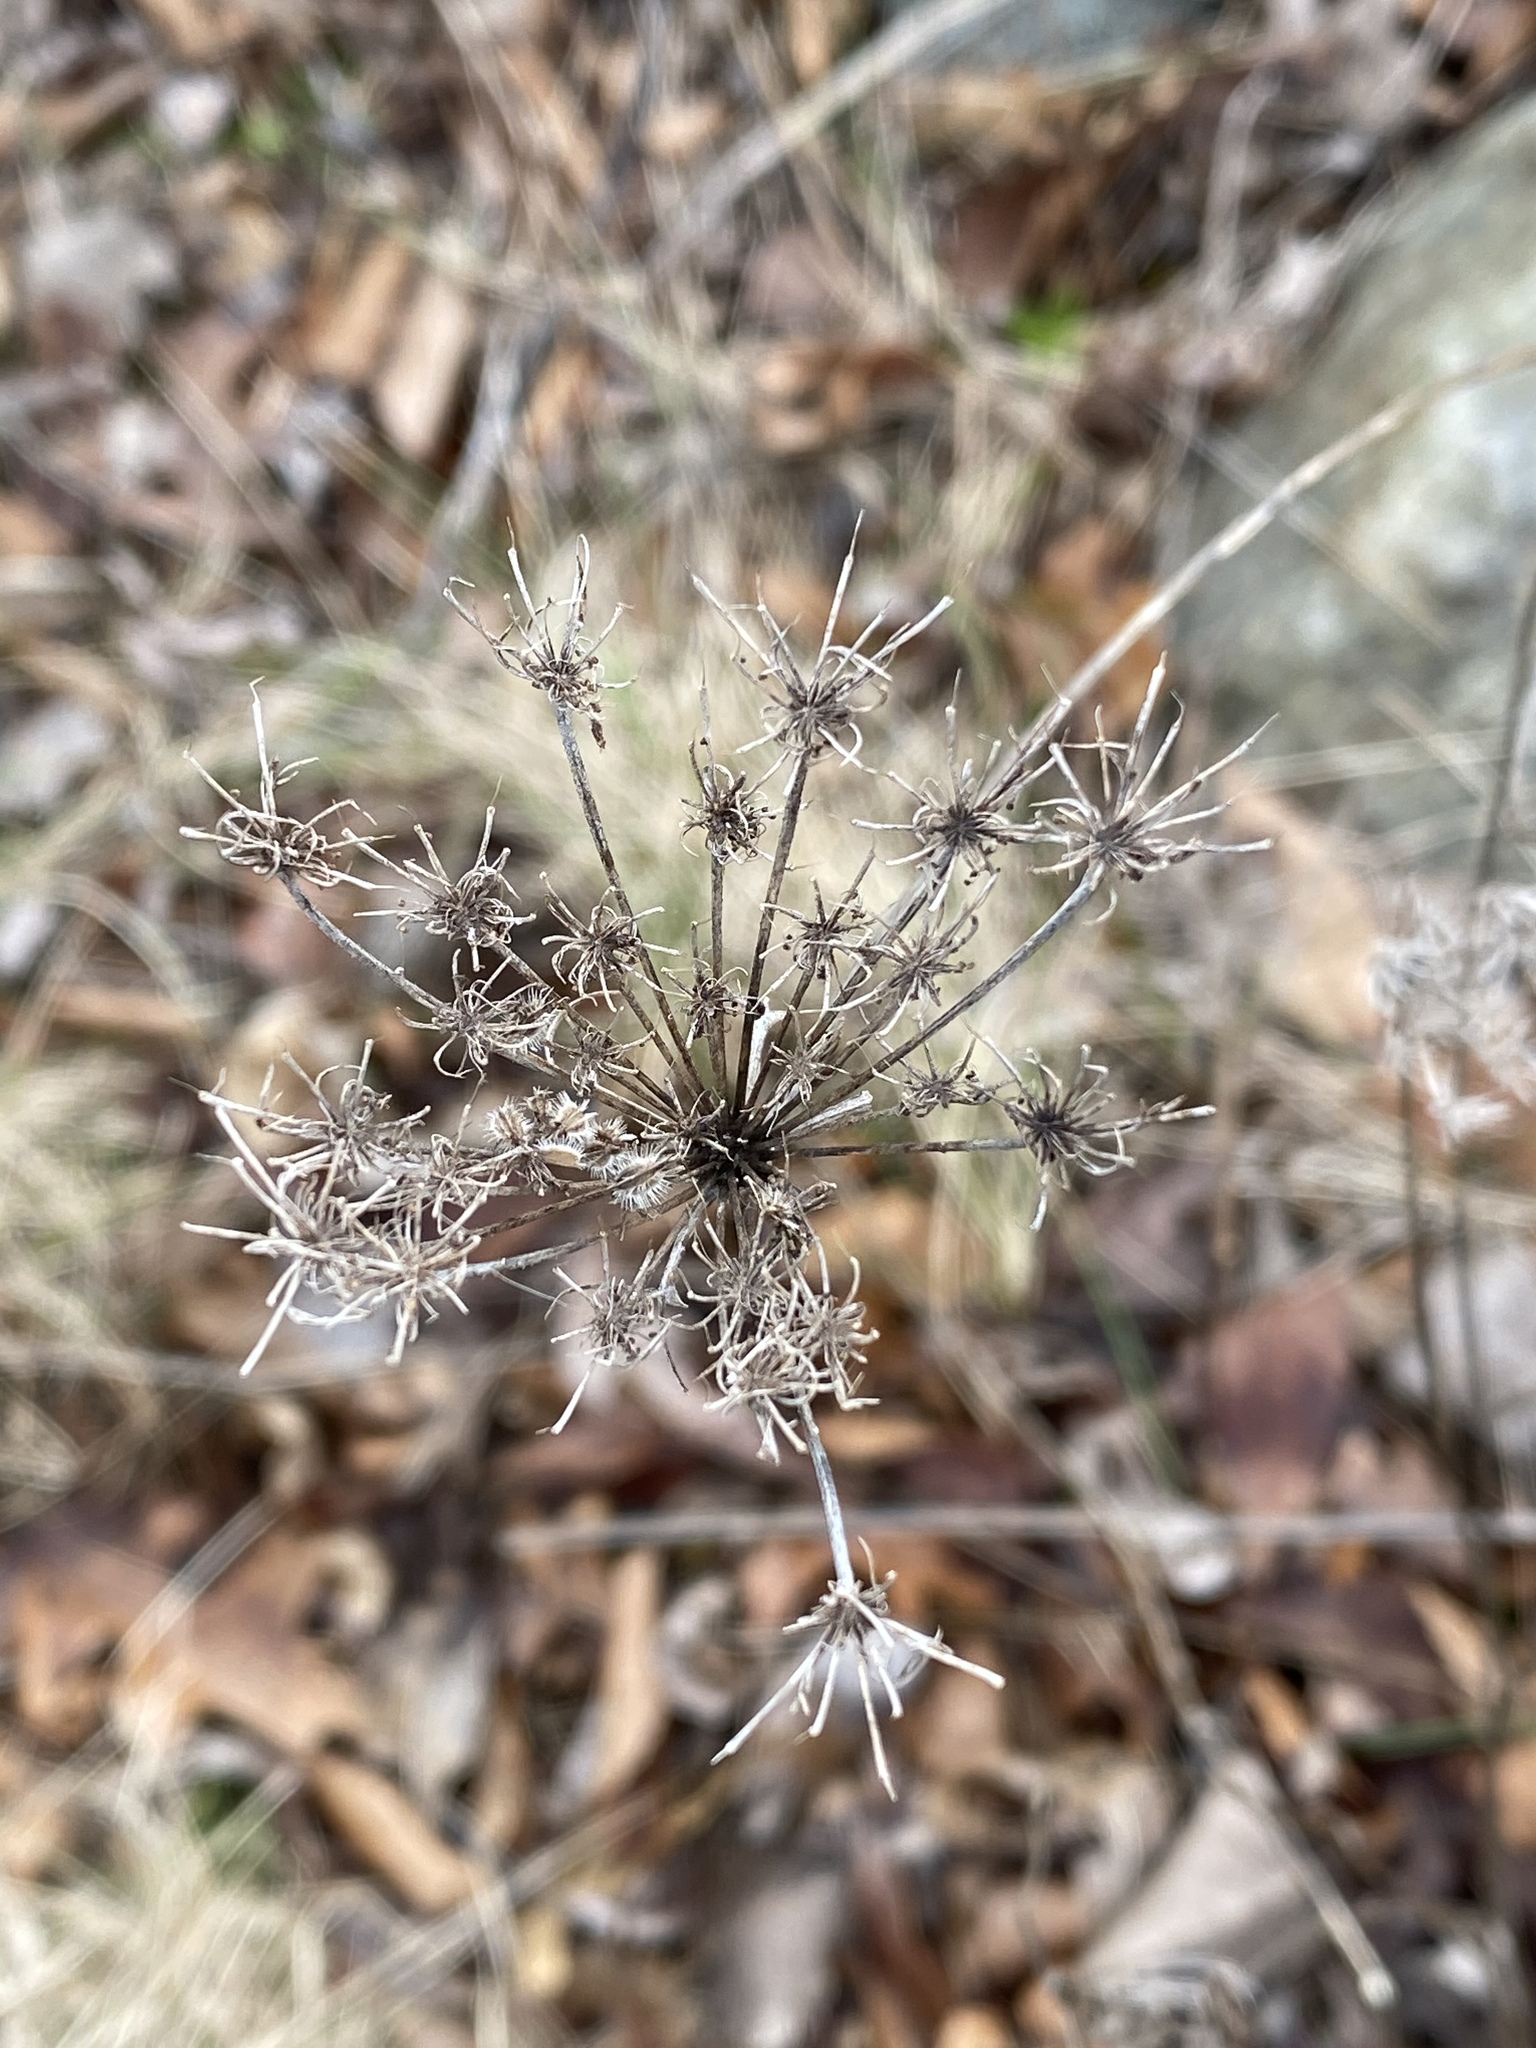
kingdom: Plantae
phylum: Tracheophyta
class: Magnoliopsida
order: Apiales
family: Apiaceae
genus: Daucus
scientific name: Daucus carota
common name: Wild carrot
